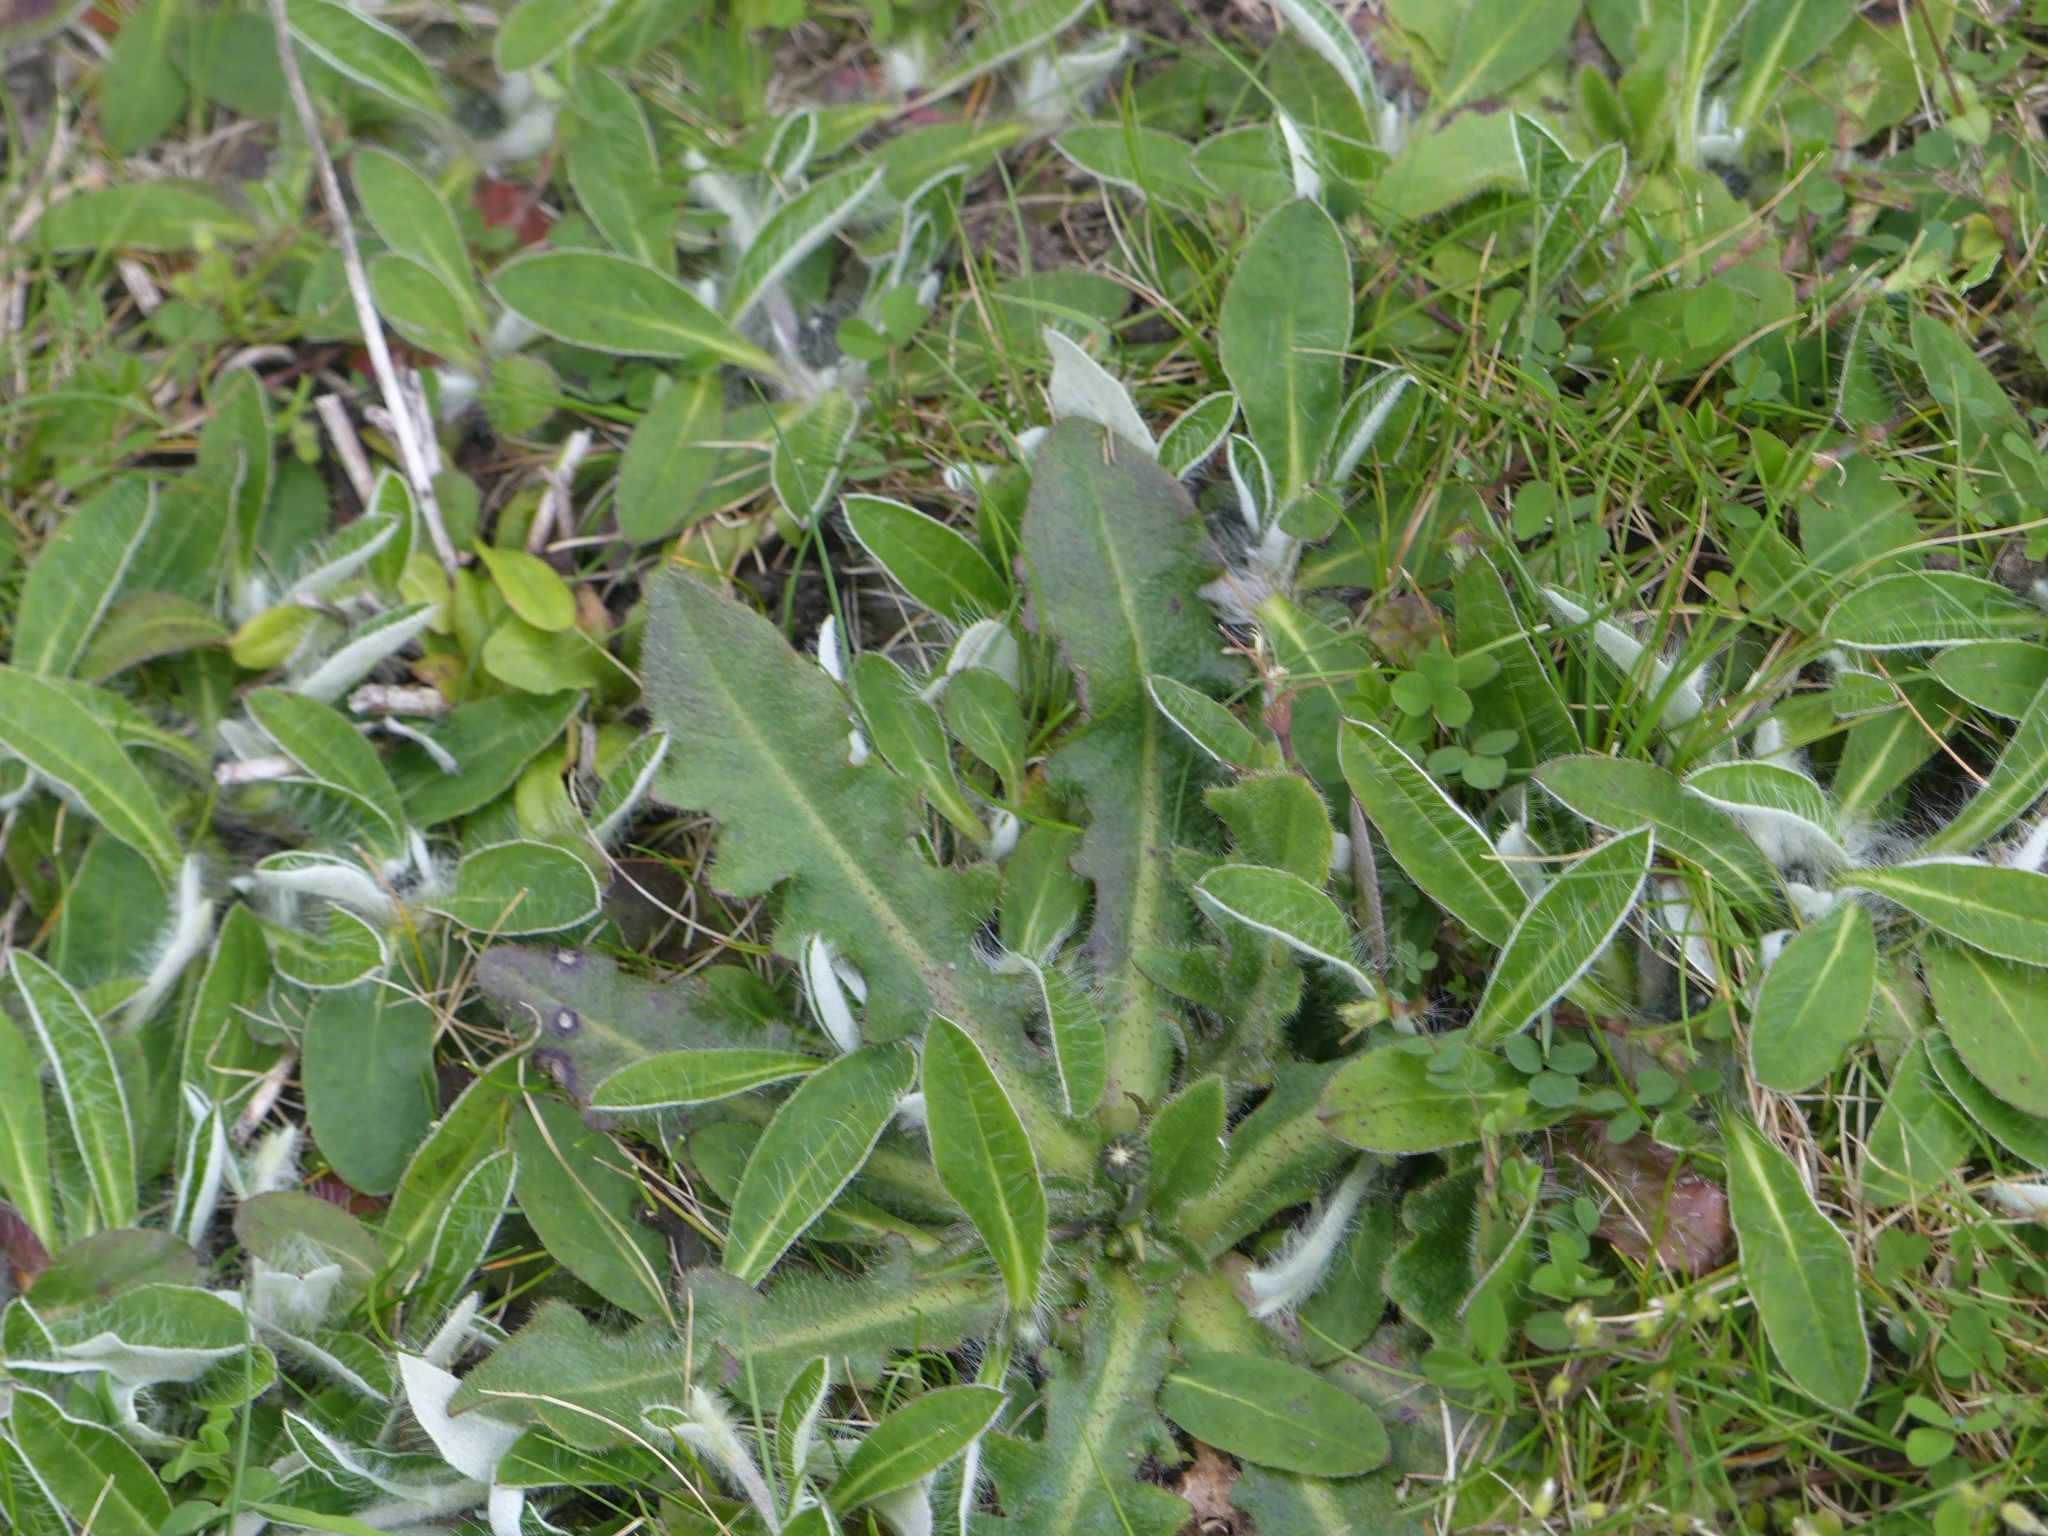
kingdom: Plantae
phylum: Tracheophyta
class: Magnoliopsida
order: Asterales
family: Asteraceae
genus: Pilosella
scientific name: Pilosella officinarum
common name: Mouse-ear hawkweed
